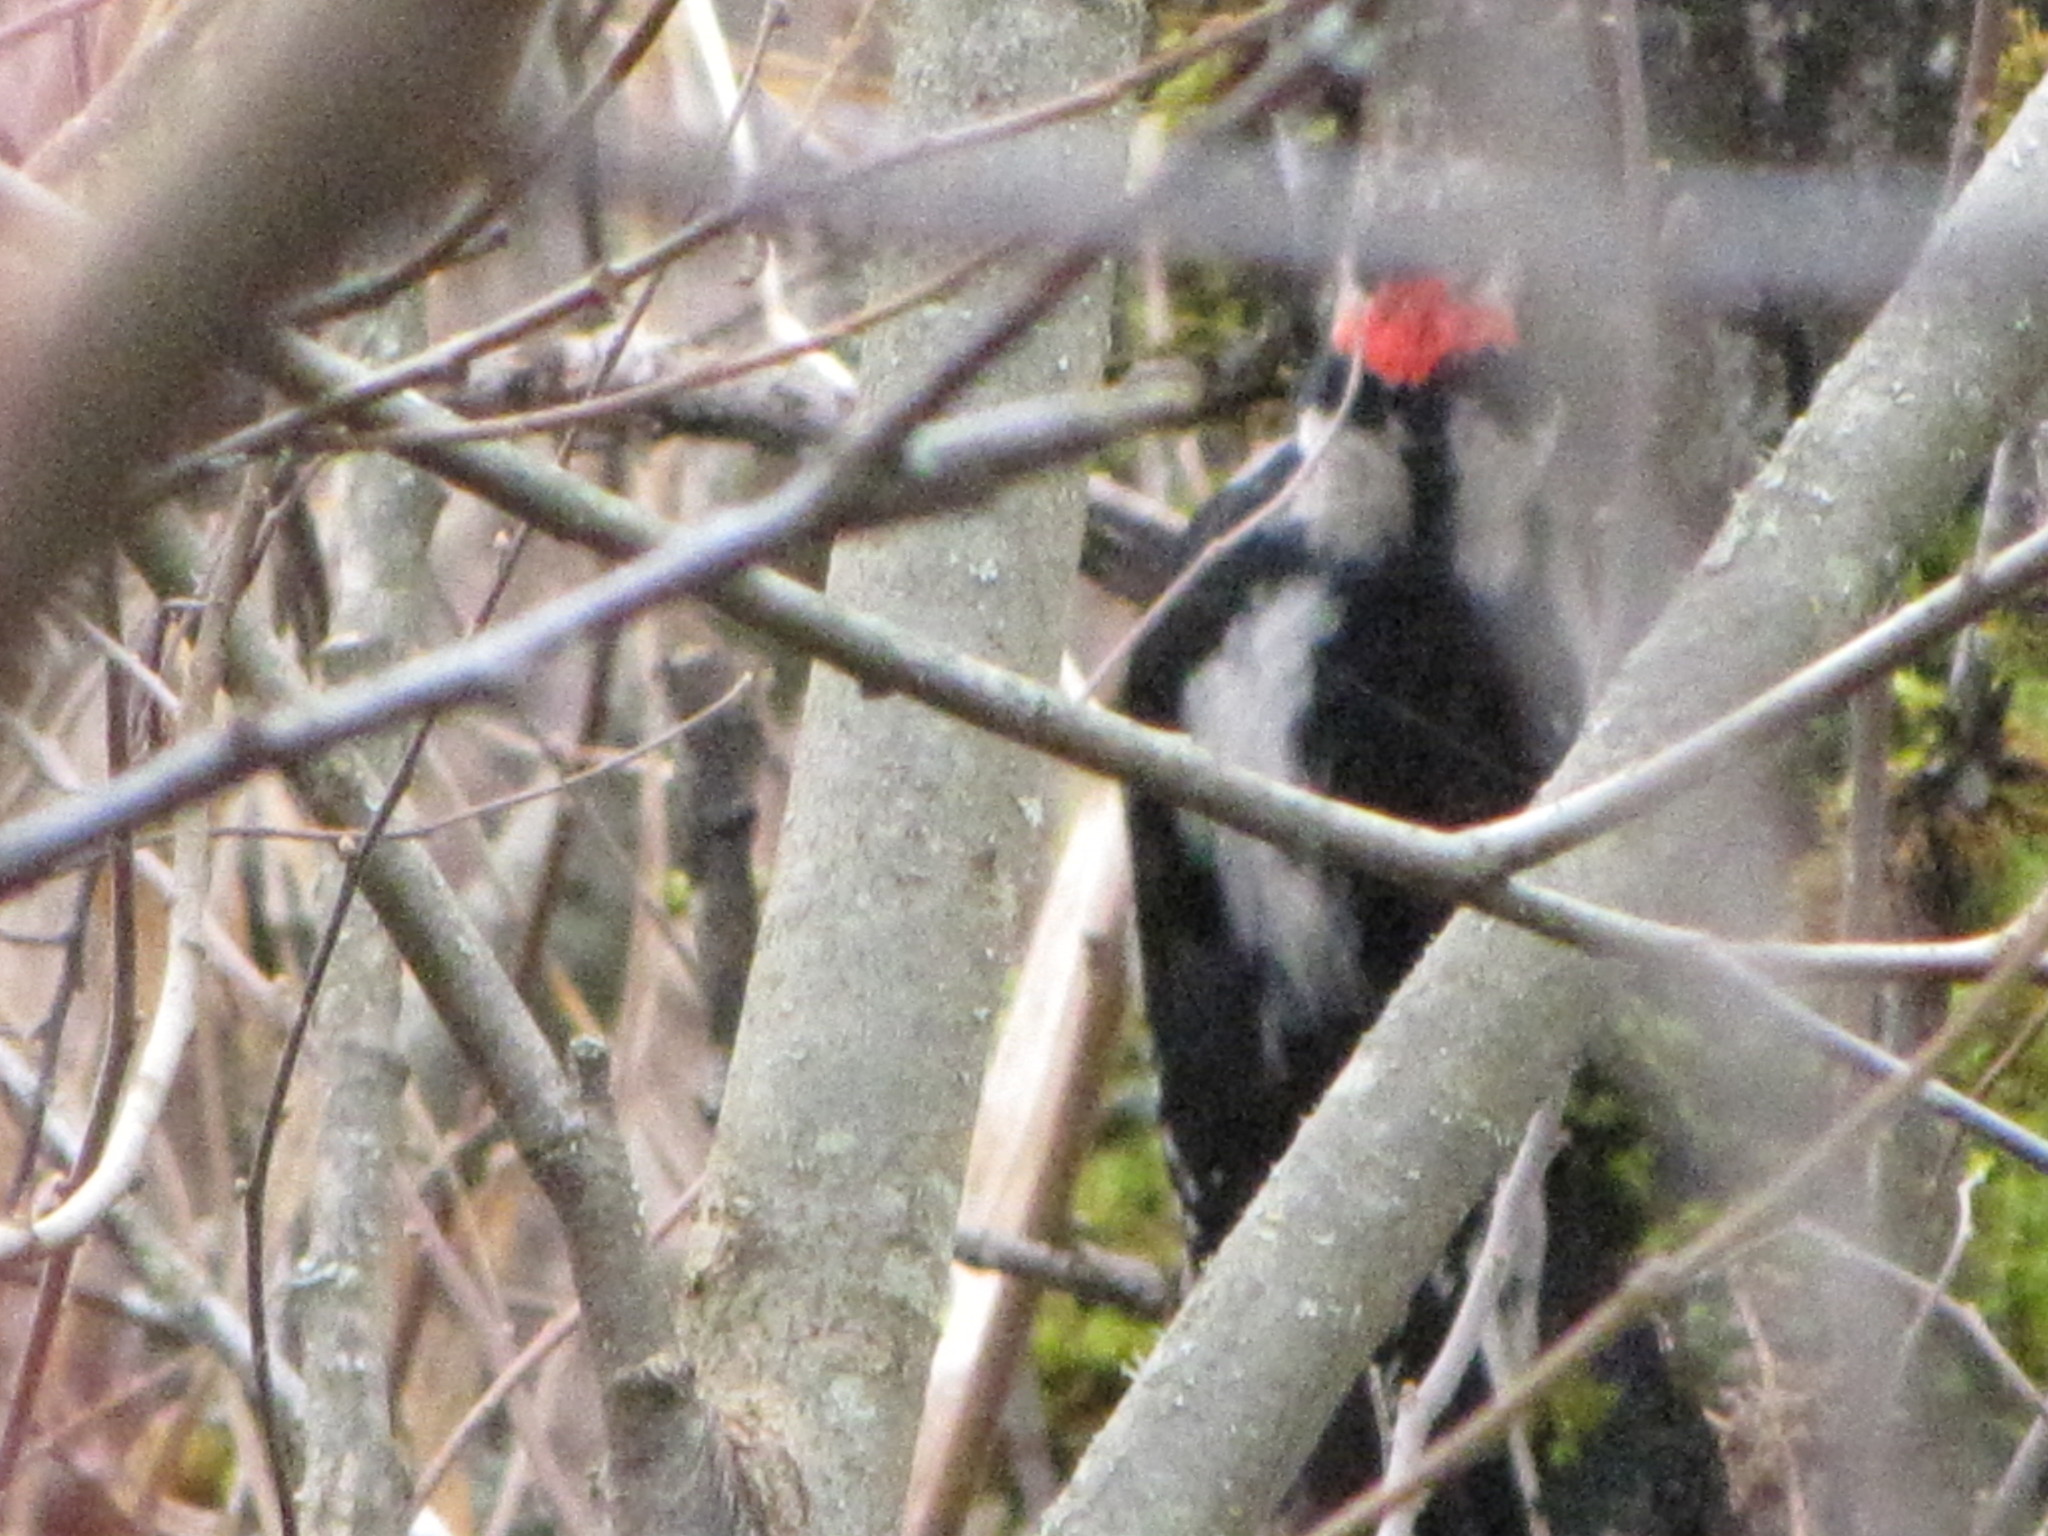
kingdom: Animalia
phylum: Chordata
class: Aves
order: Piciformes
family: Picidae
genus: Leuconotopicus
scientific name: Leuconotopicus villosus
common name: Hairy woodpecker
